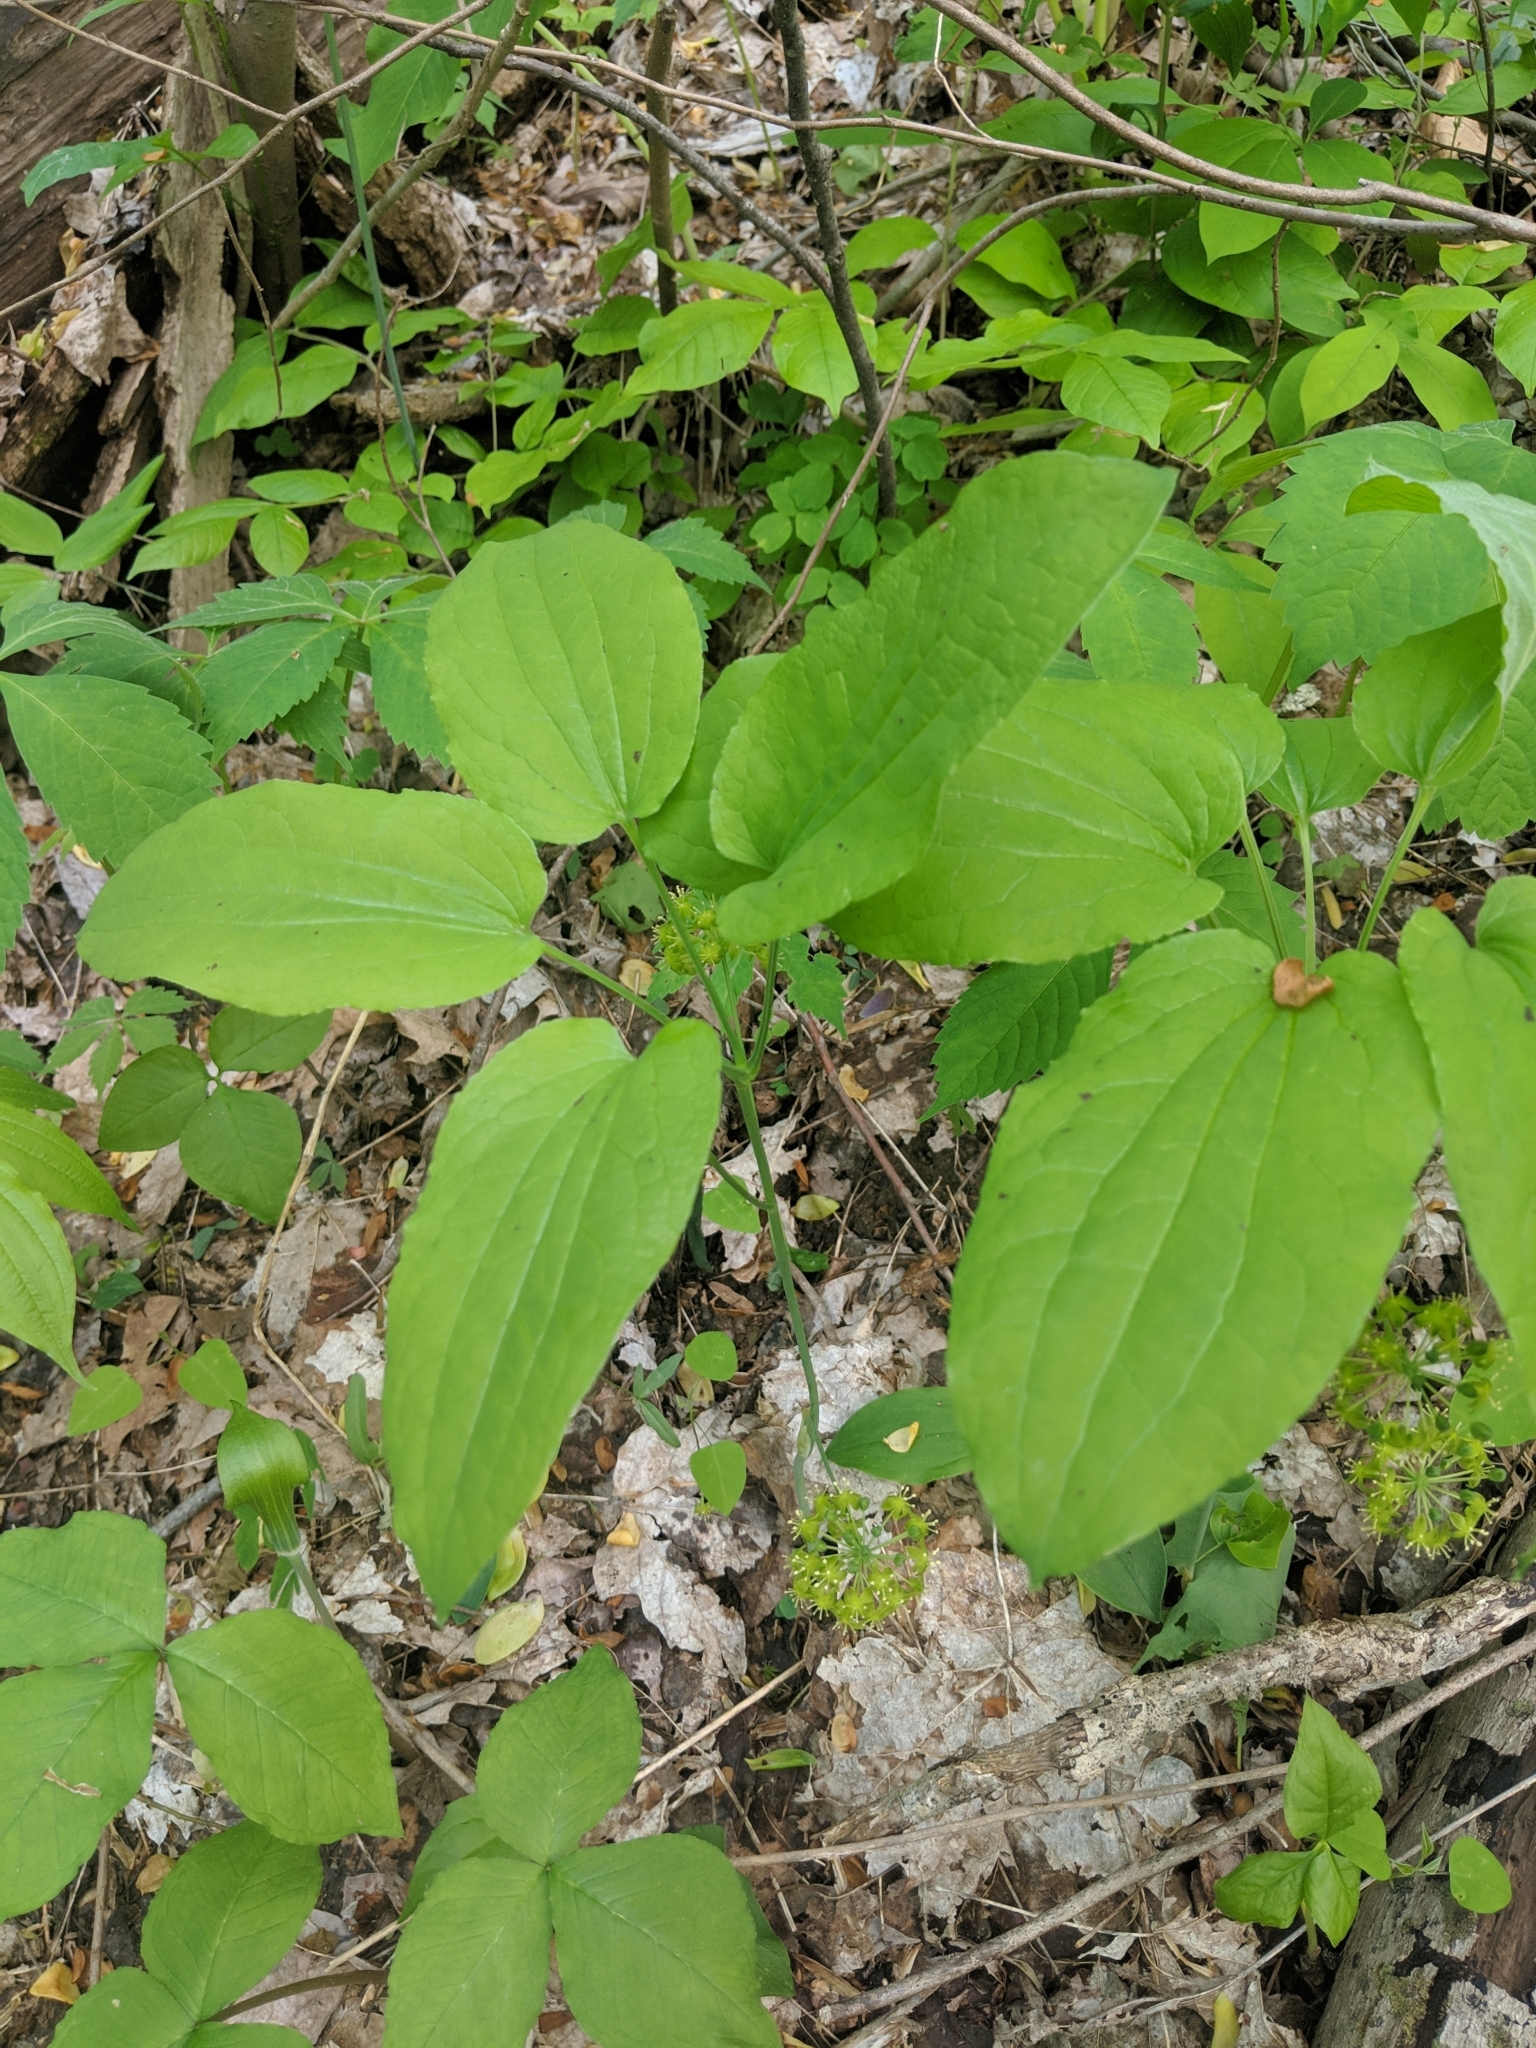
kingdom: Plantae
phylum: Tracheophyta
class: Liliopsida
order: Liliales
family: Smilacaceae
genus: Smilax
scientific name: Smilax hugeri
